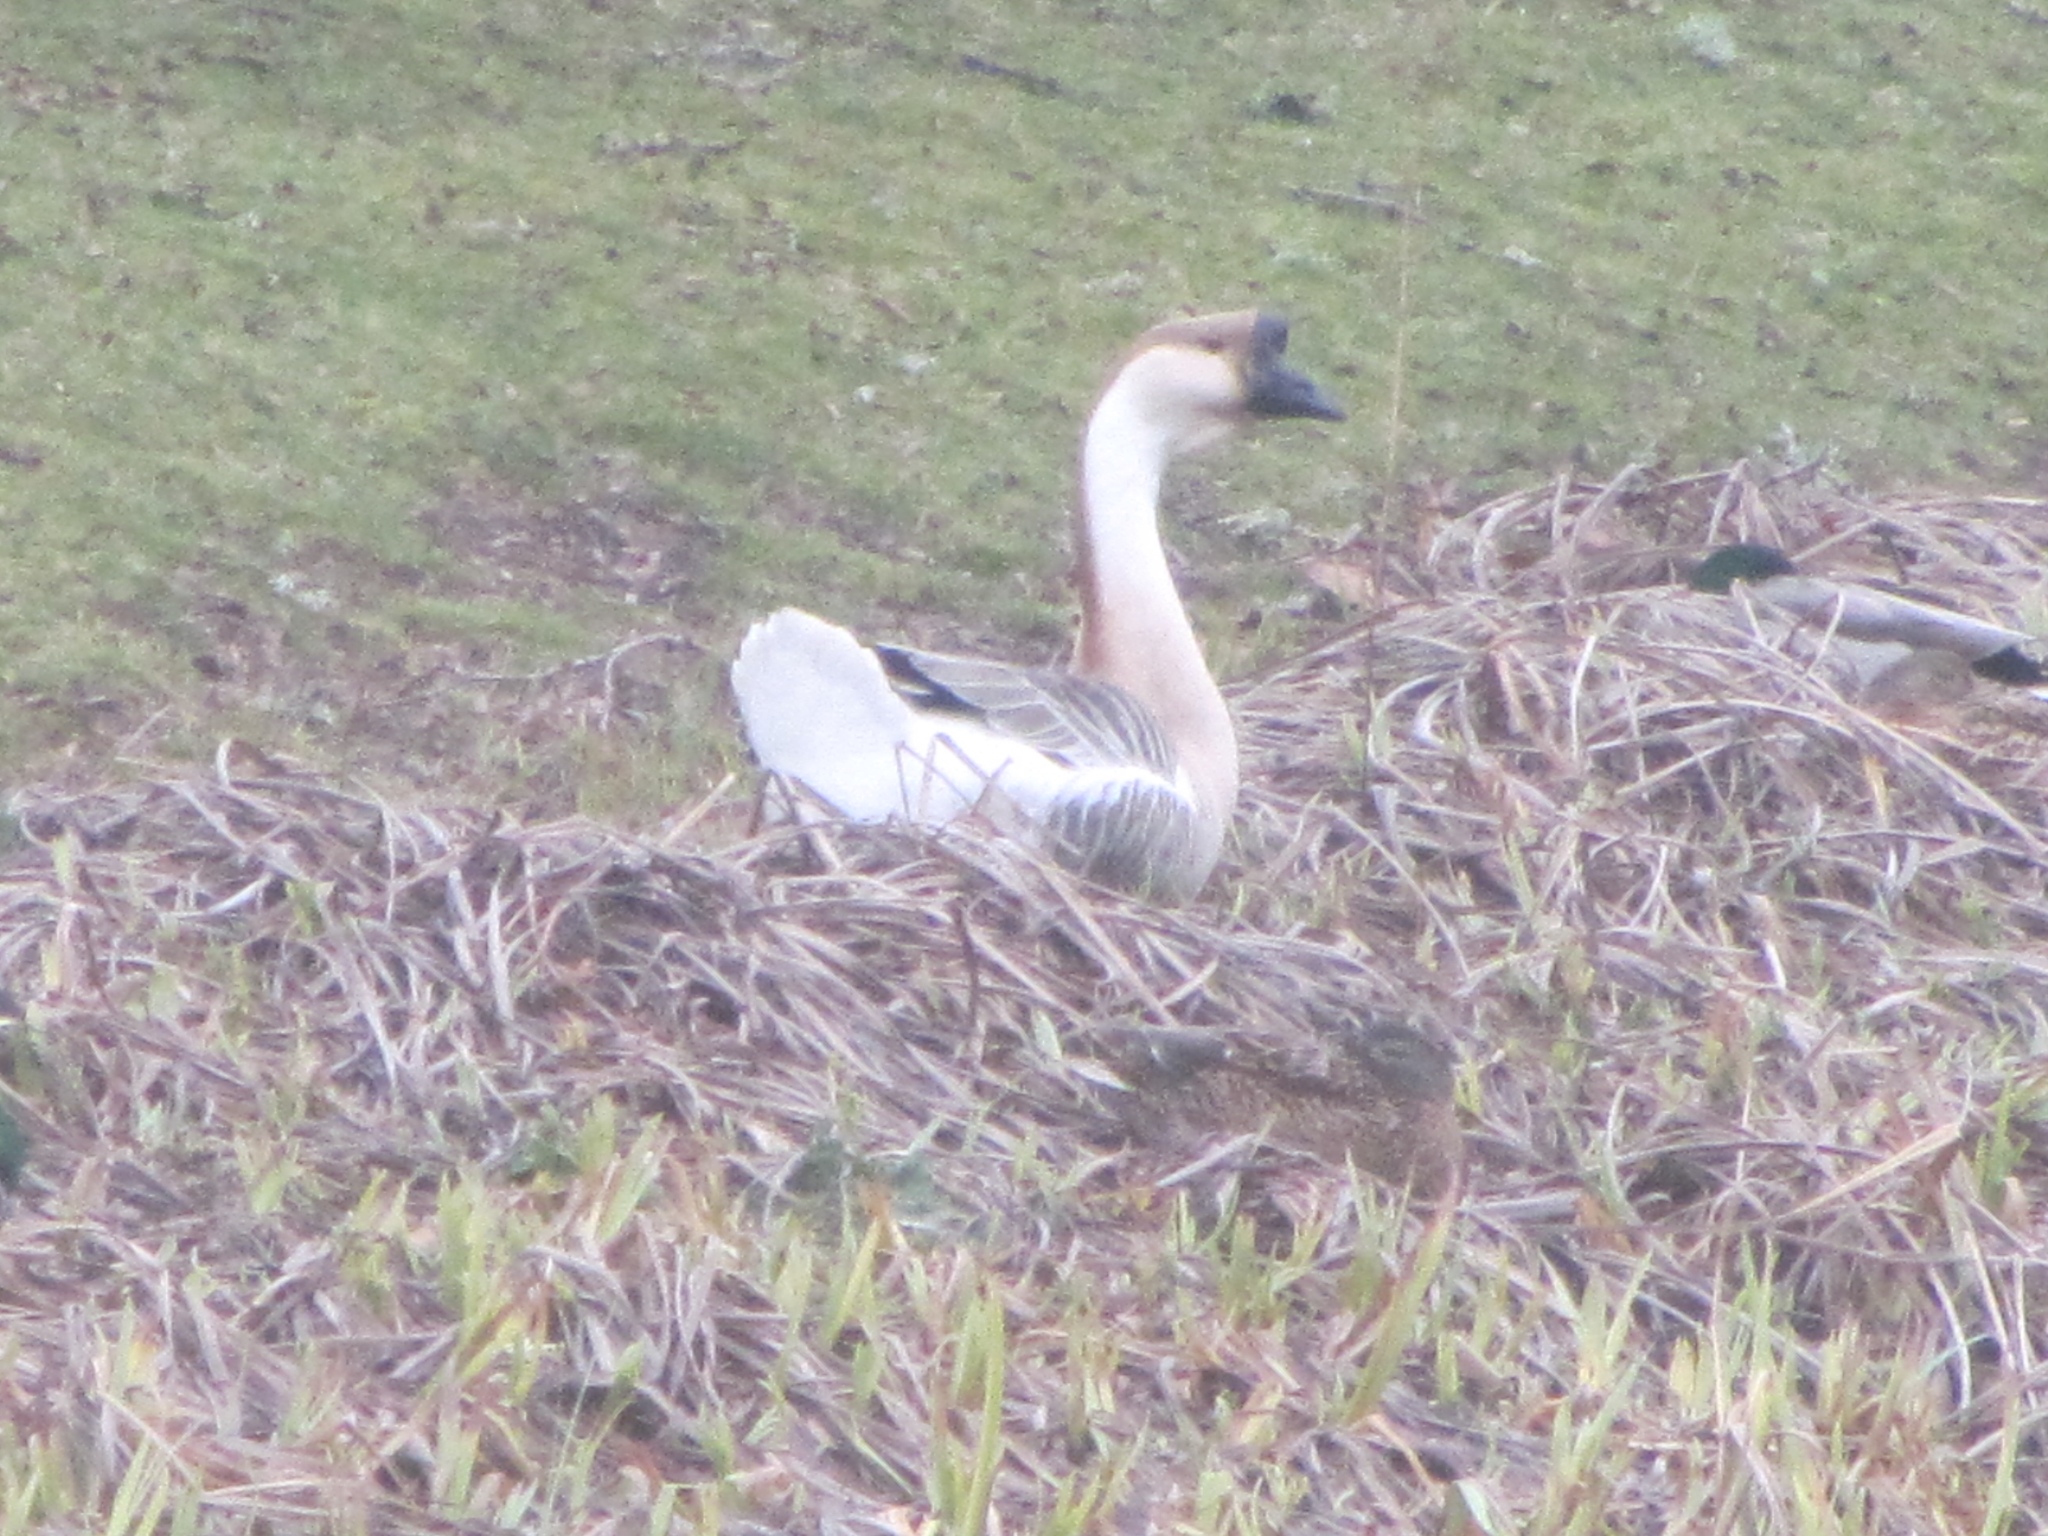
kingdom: Animalia
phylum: Chordata
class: Aves
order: Anseriformes
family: Anatidae
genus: Anser
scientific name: Anser cygnoides
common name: Swan goose
